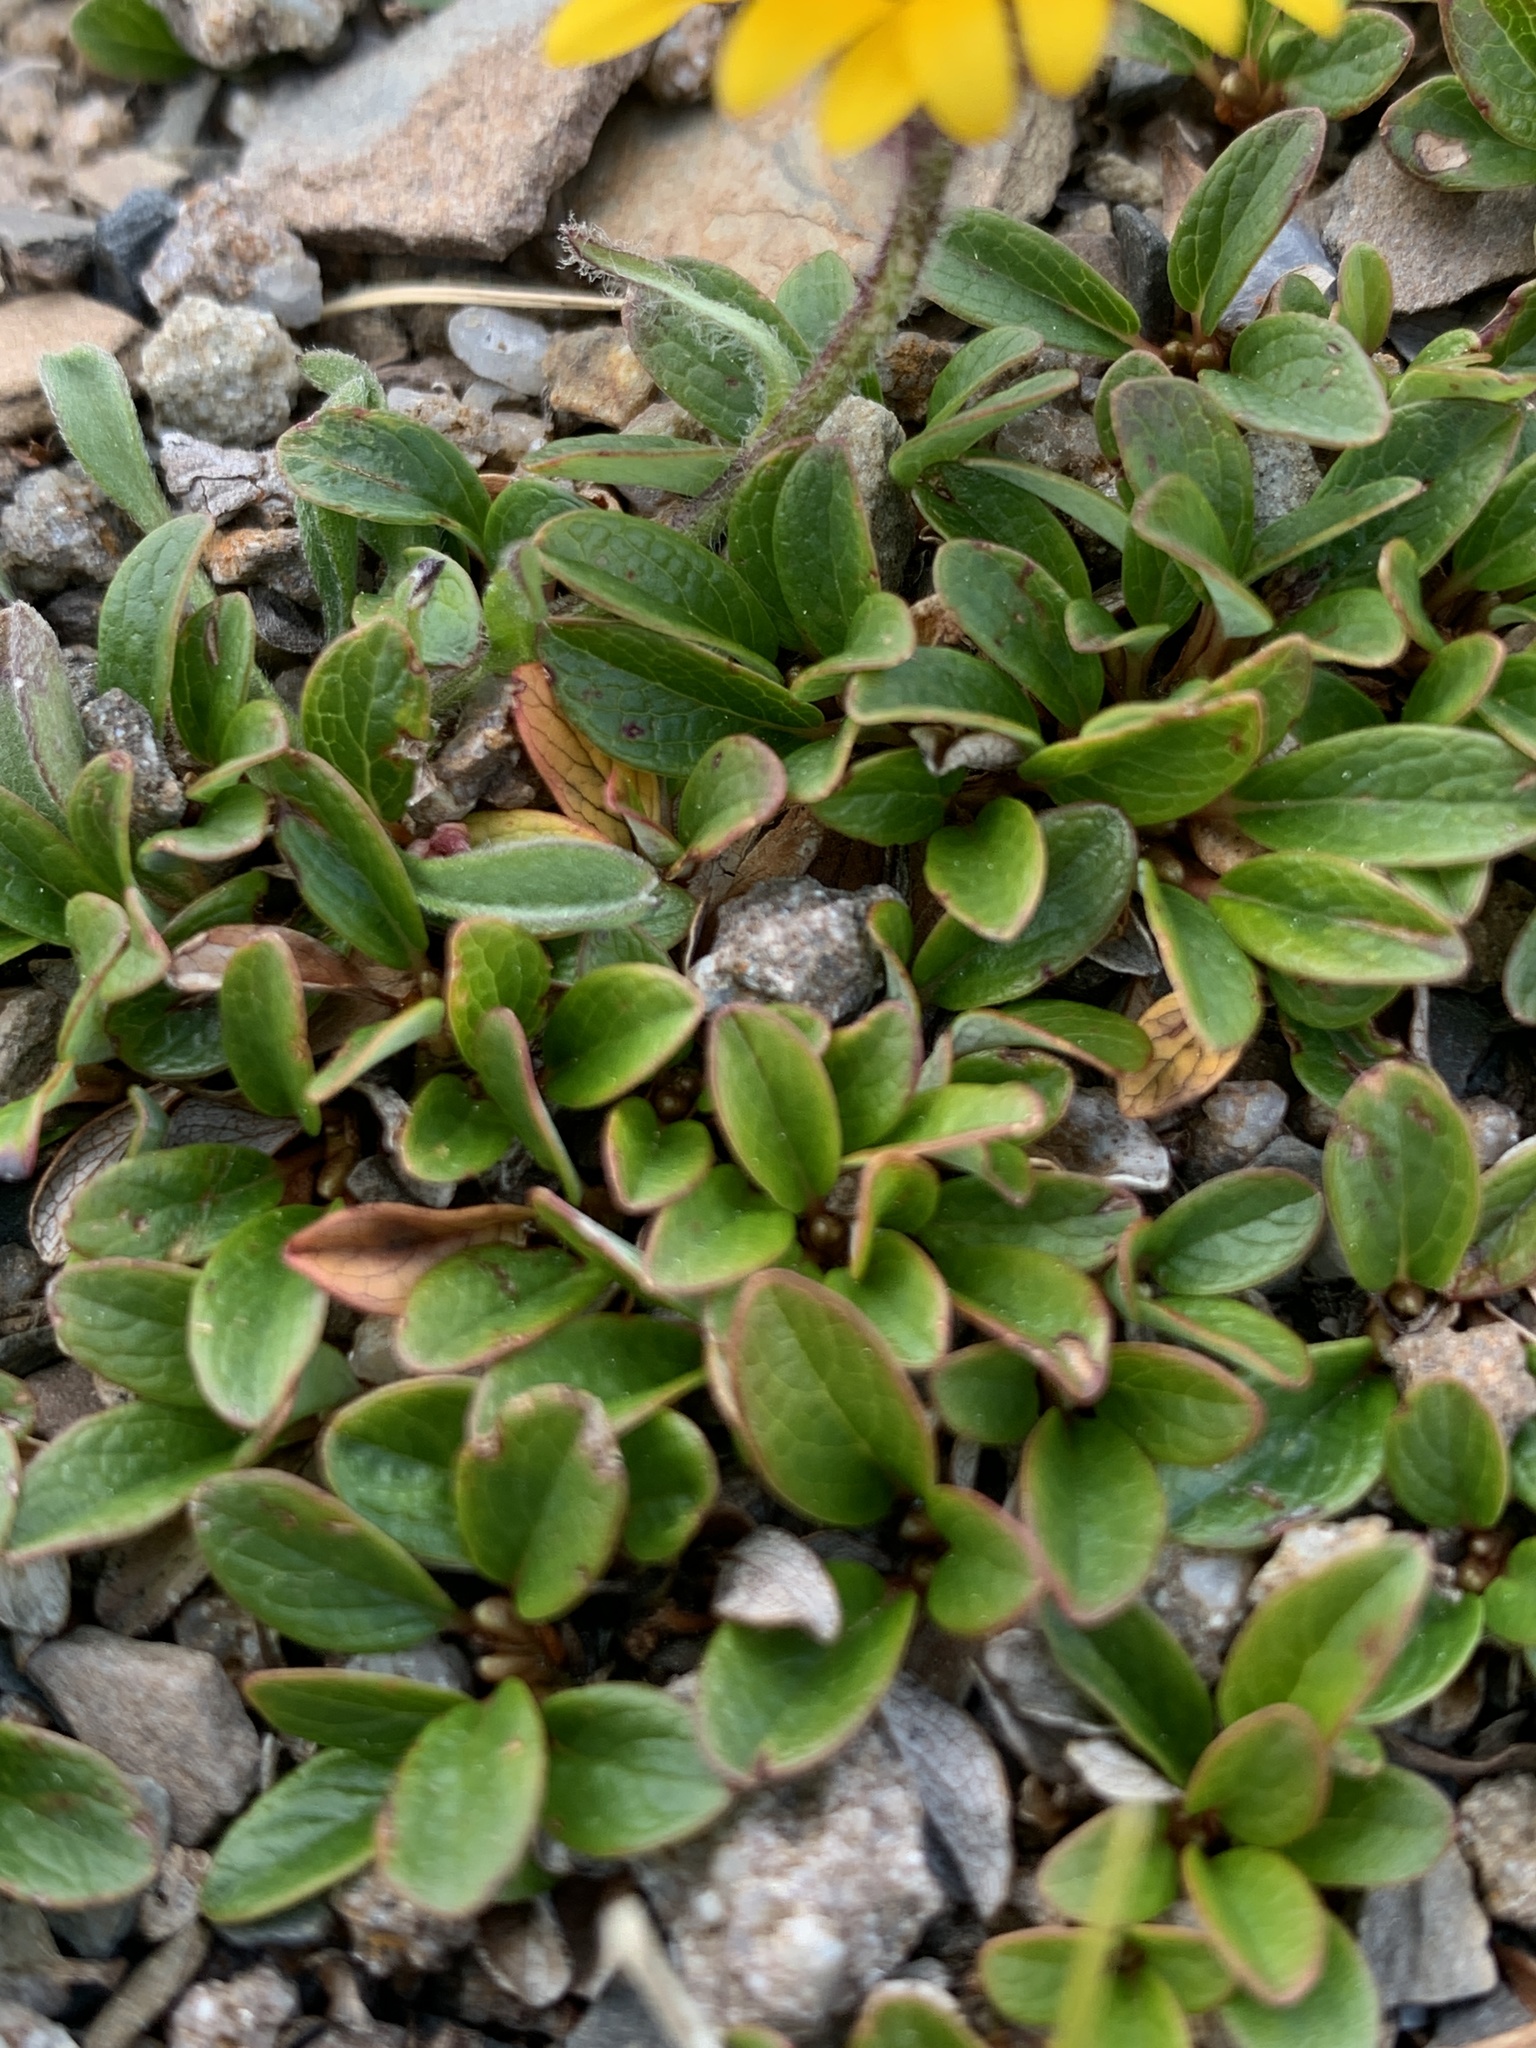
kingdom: Plantae
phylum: Tracheophyta
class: Magnoliopsida
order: Asterales
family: Asteraceae
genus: Erigeron
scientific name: Erigeron aureus
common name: Alpine yellow fleabane
